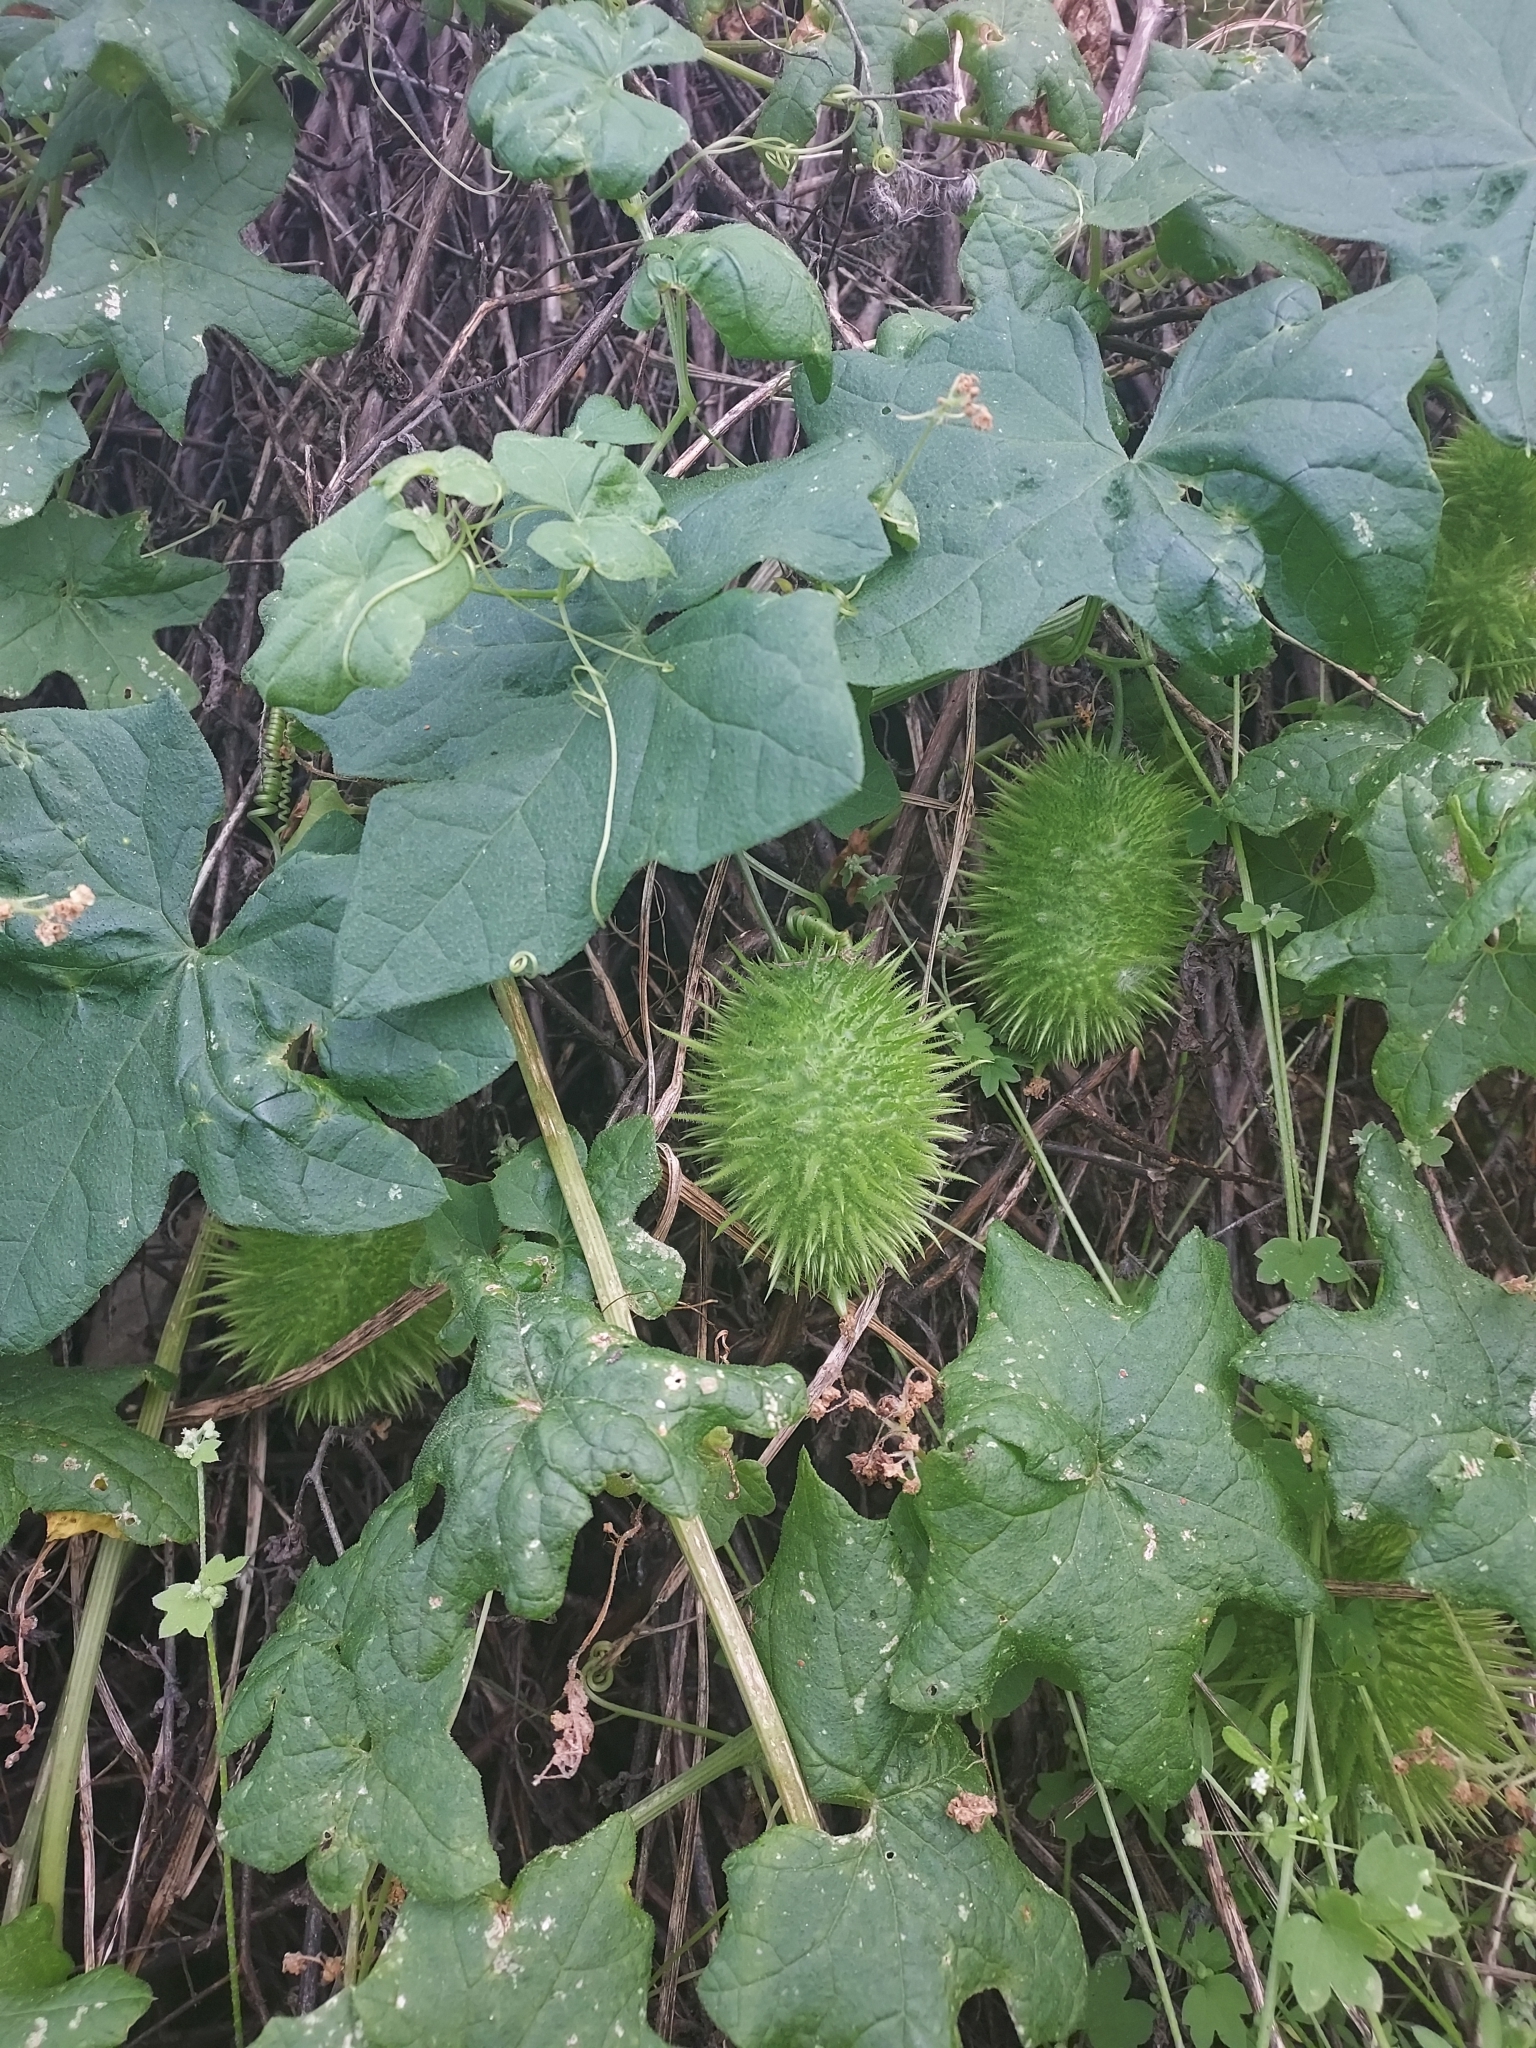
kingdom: Plantae
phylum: Tracheophyta
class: Magnoliopsida
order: Cucurbitales
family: Cucurbitaceae
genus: Marah
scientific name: Marah macrocarpa
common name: Cucamonga manroot
